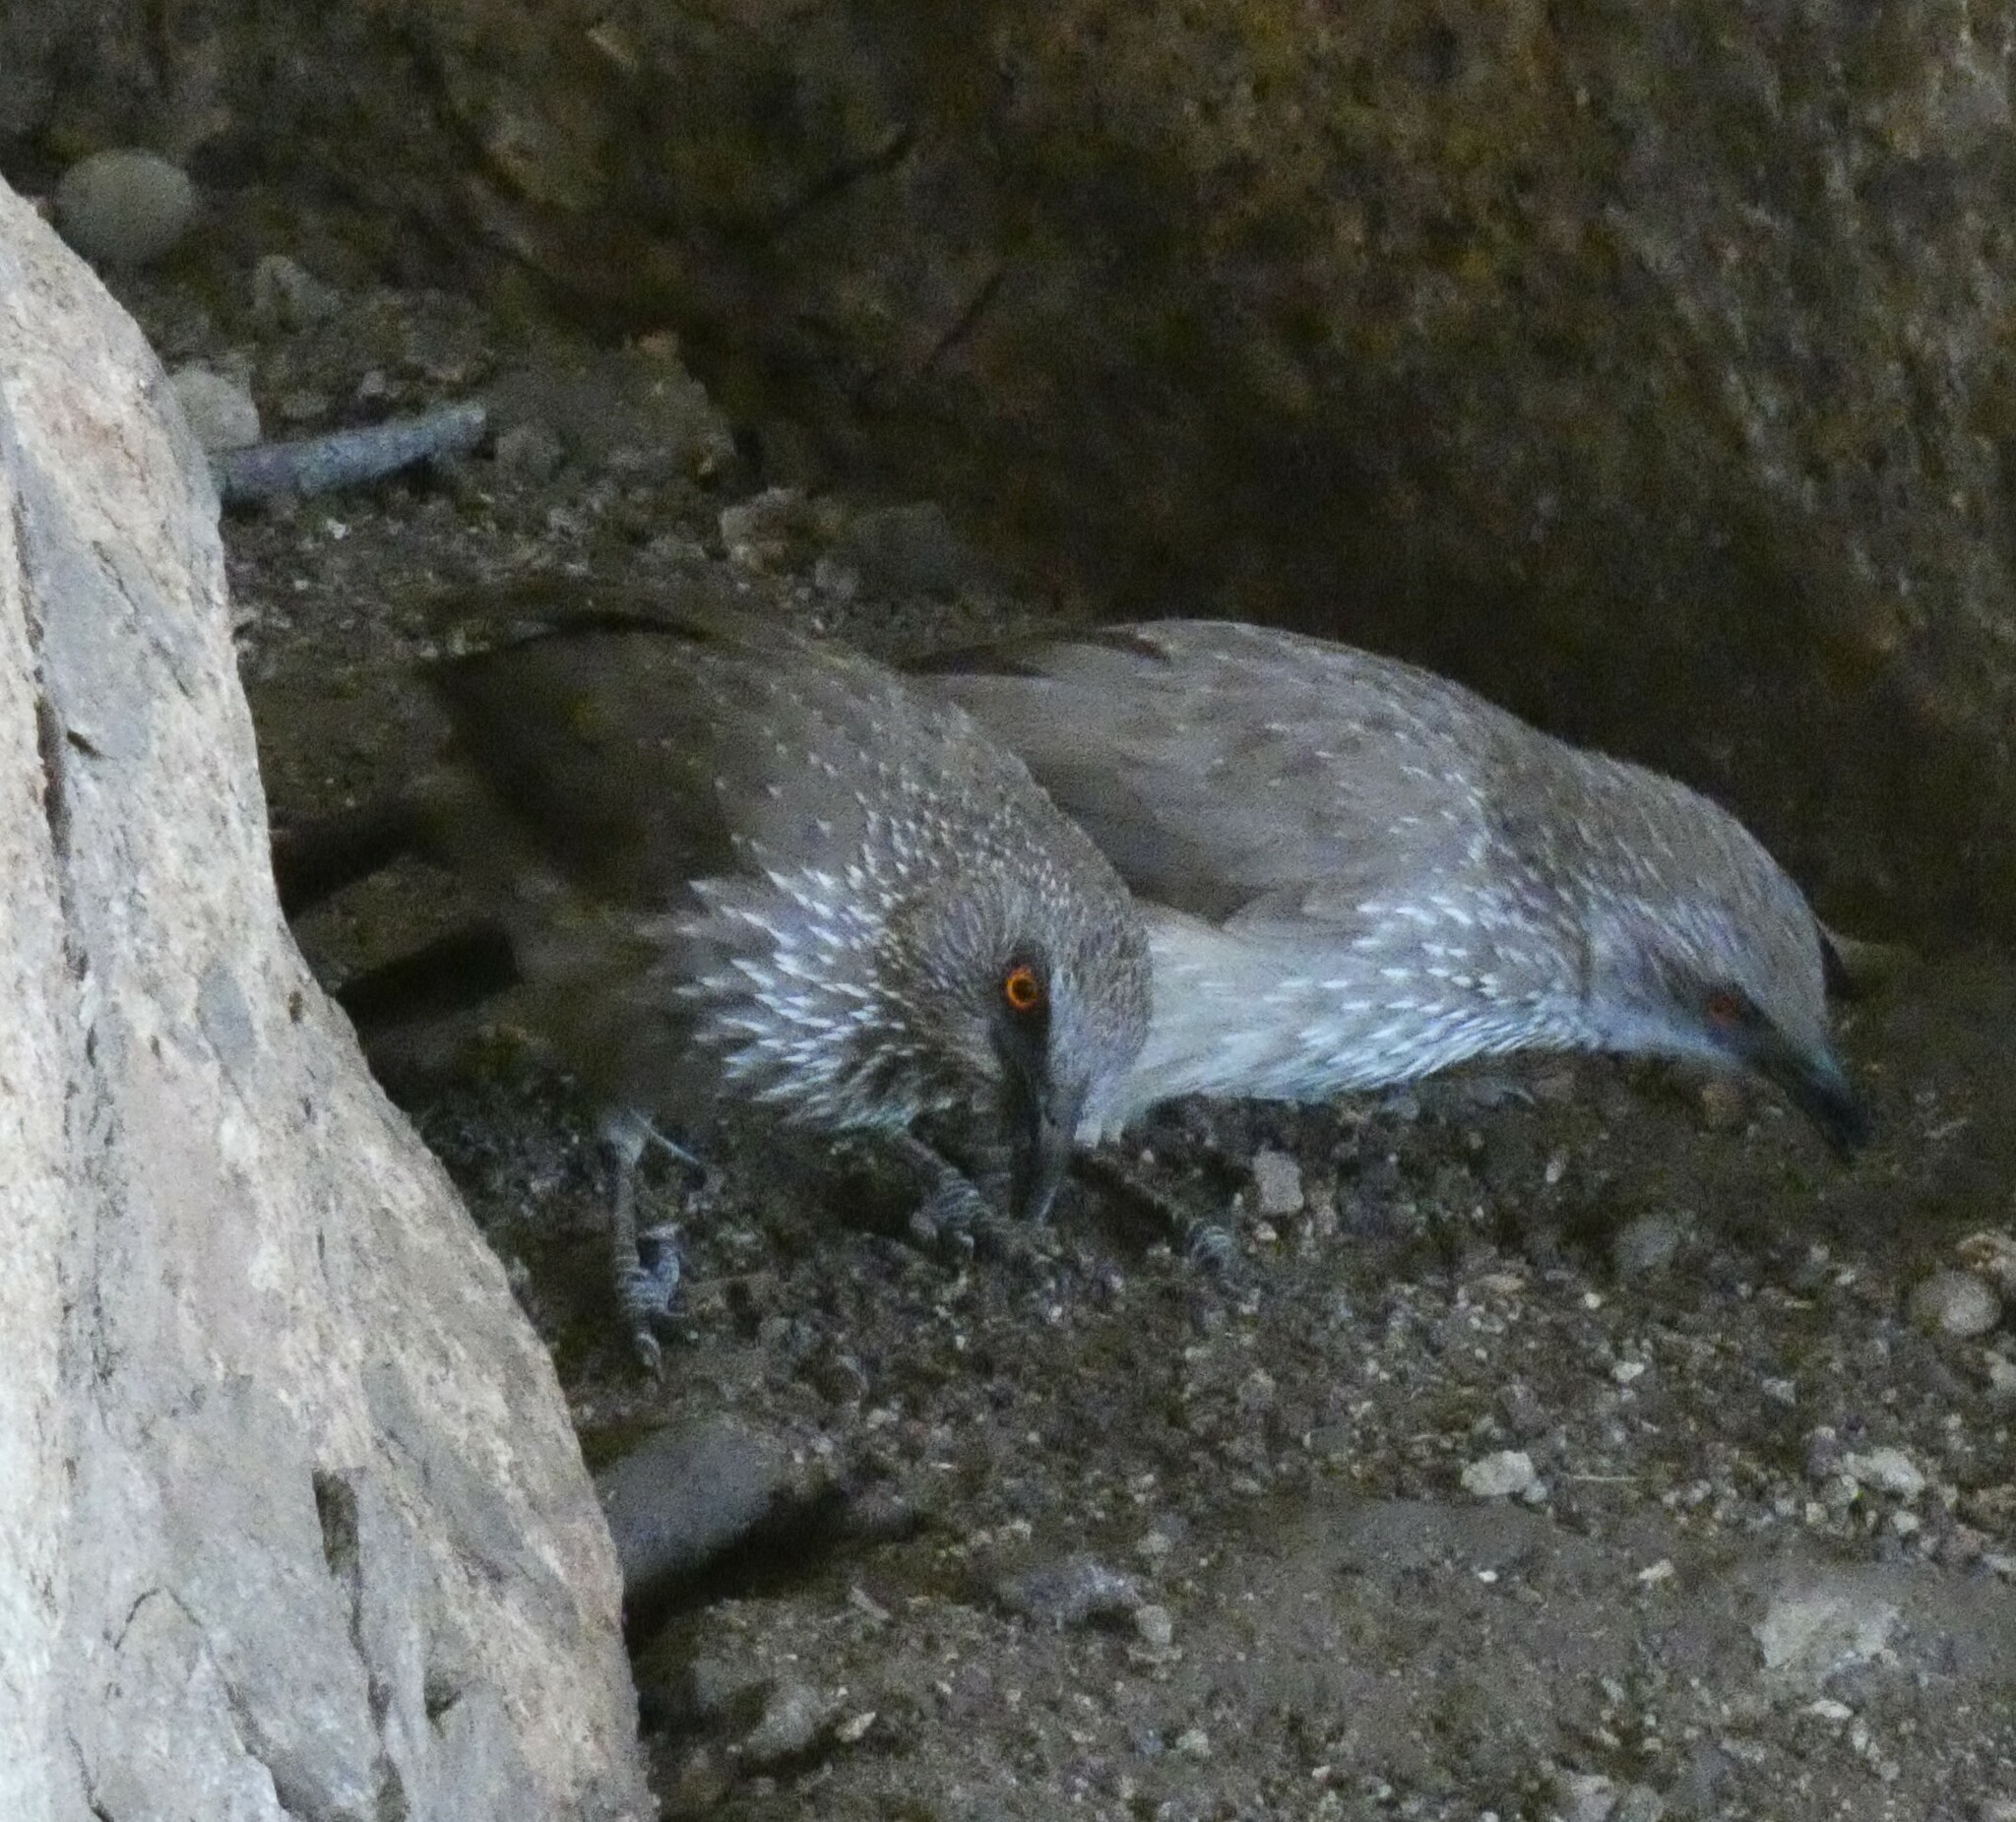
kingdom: Animalia
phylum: Chordata
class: Aves
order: Passeriformes
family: Leiothrichidae
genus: Turdoides
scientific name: Turdoides jardineii
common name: Arrow-marked babbler
